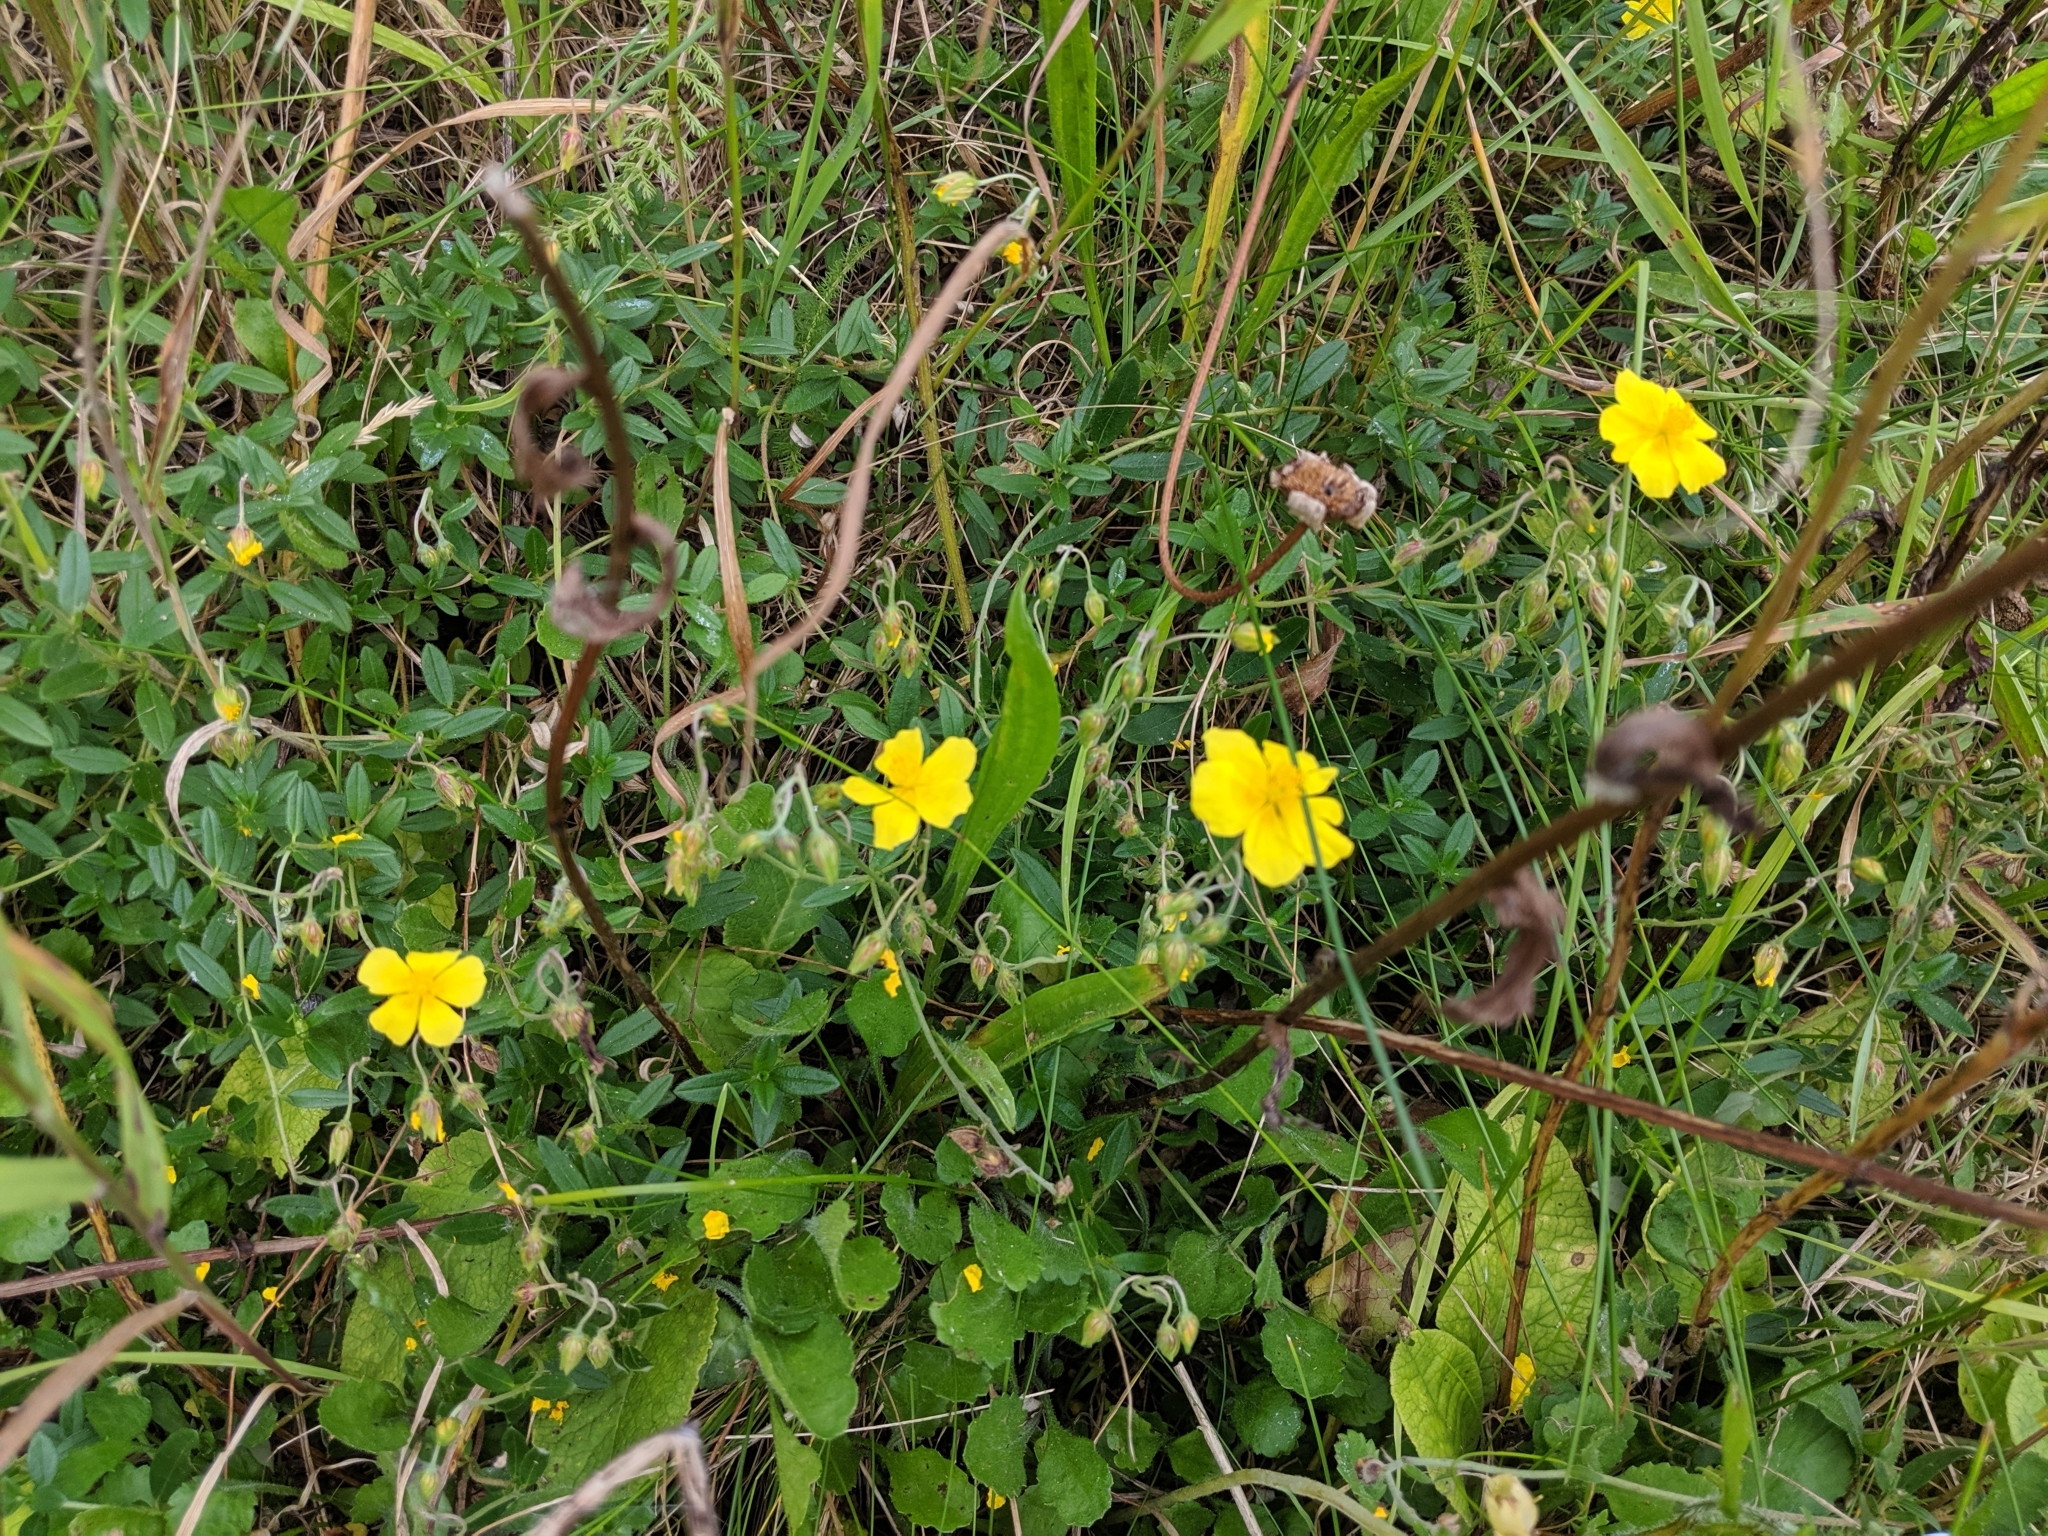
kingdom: Plantae
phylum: Tracheophyta
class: Magnoliopsida
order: Malvales
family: Cistaceae
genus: Helianthemum
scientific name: Helianthemum nummularium
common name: Common rock-rose
